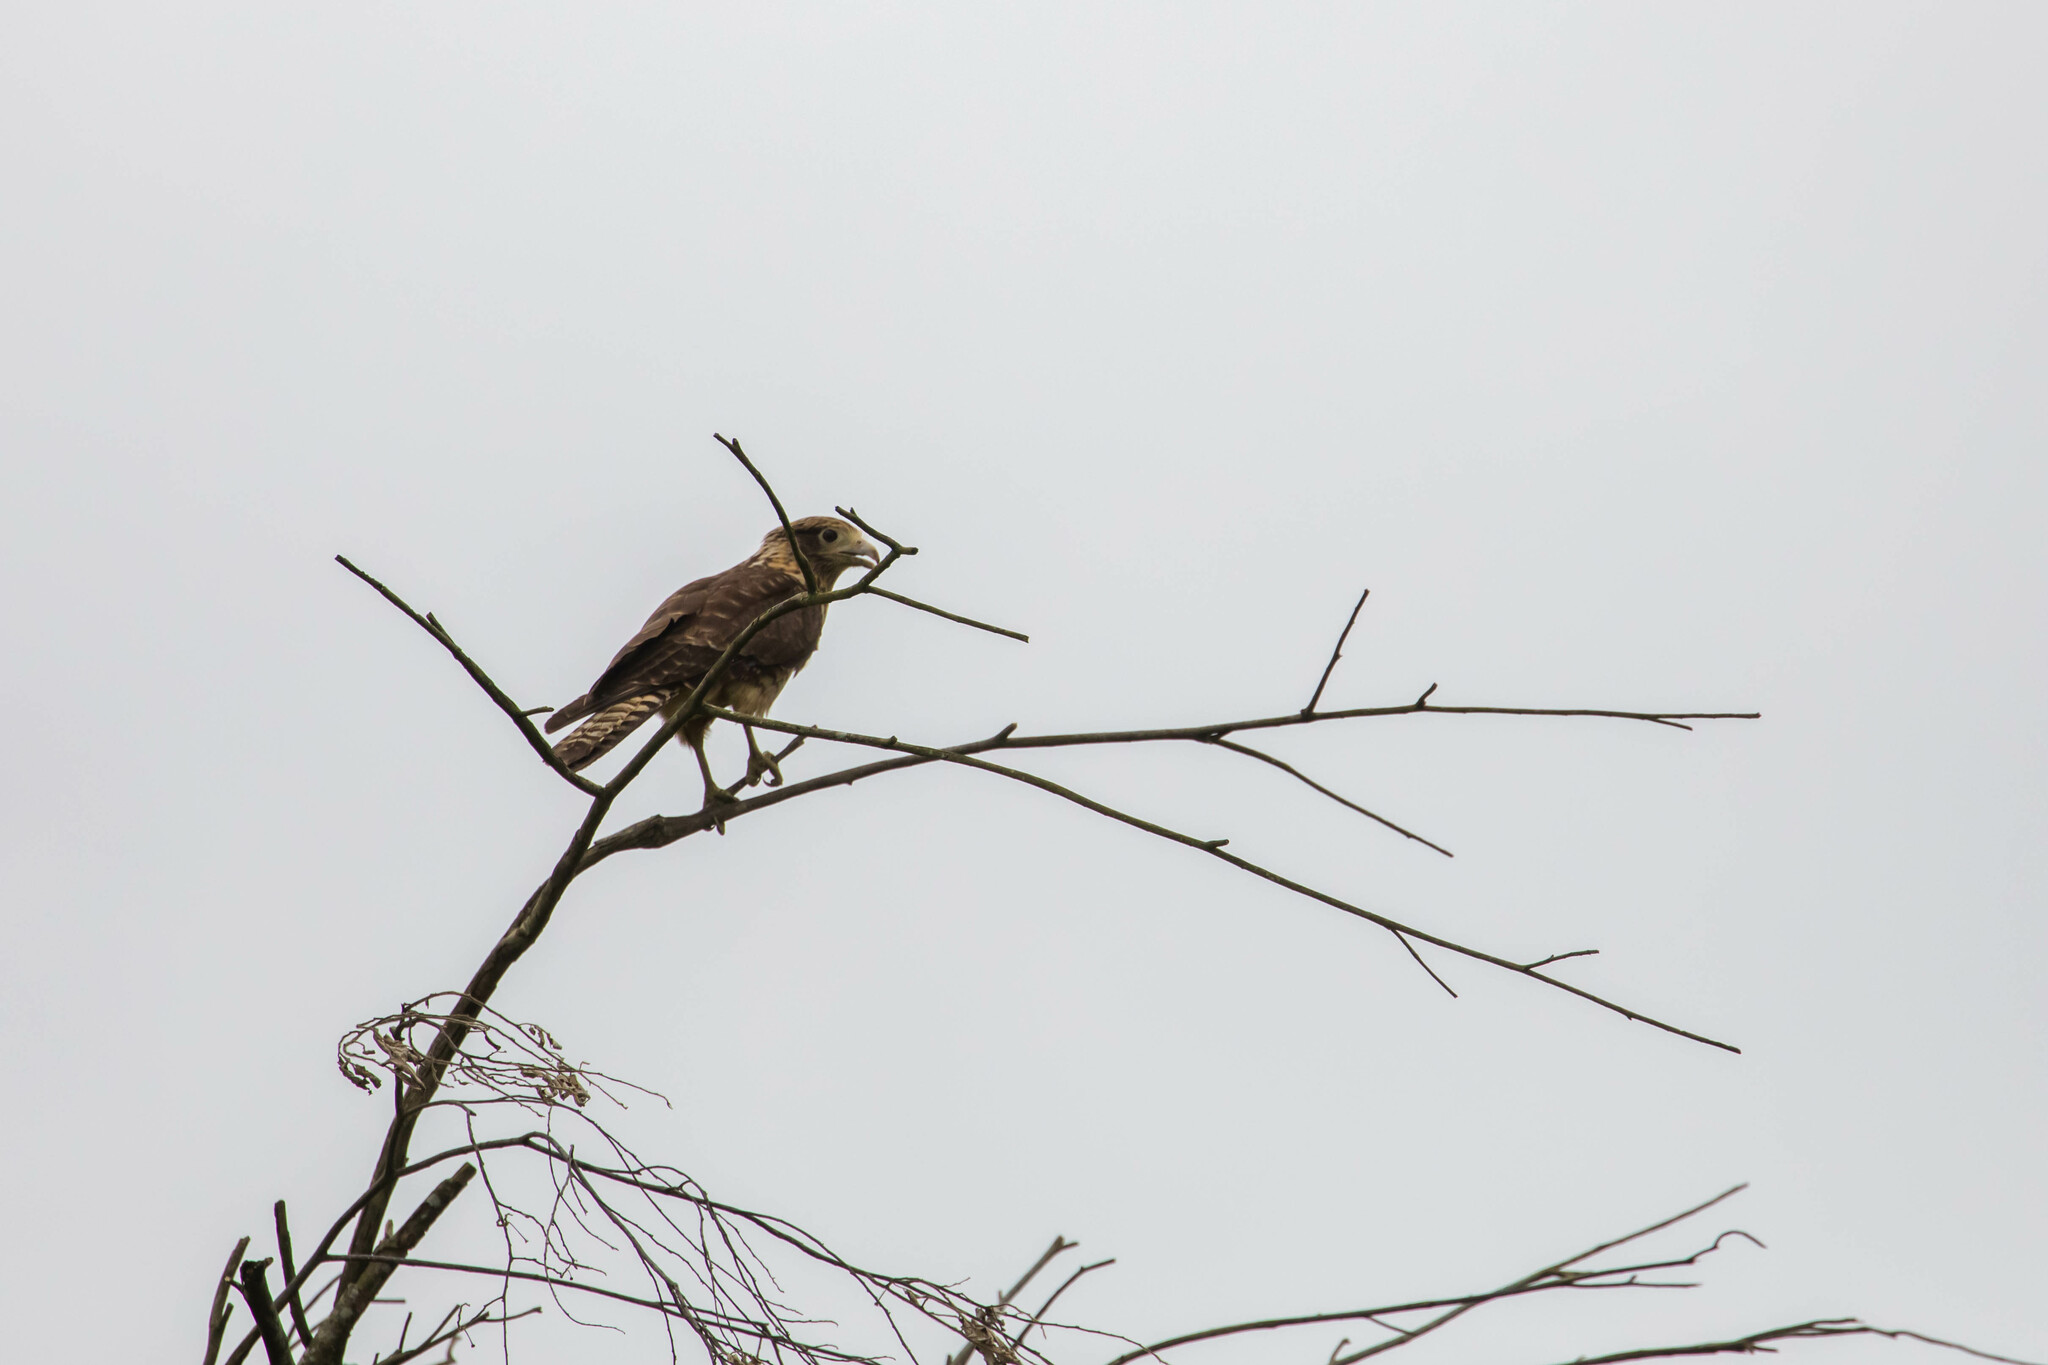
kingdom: Animalia
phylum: Chordata
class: Aves
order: Falconiformes
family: Falconidae
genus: Daptrius
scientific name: Daptrius
